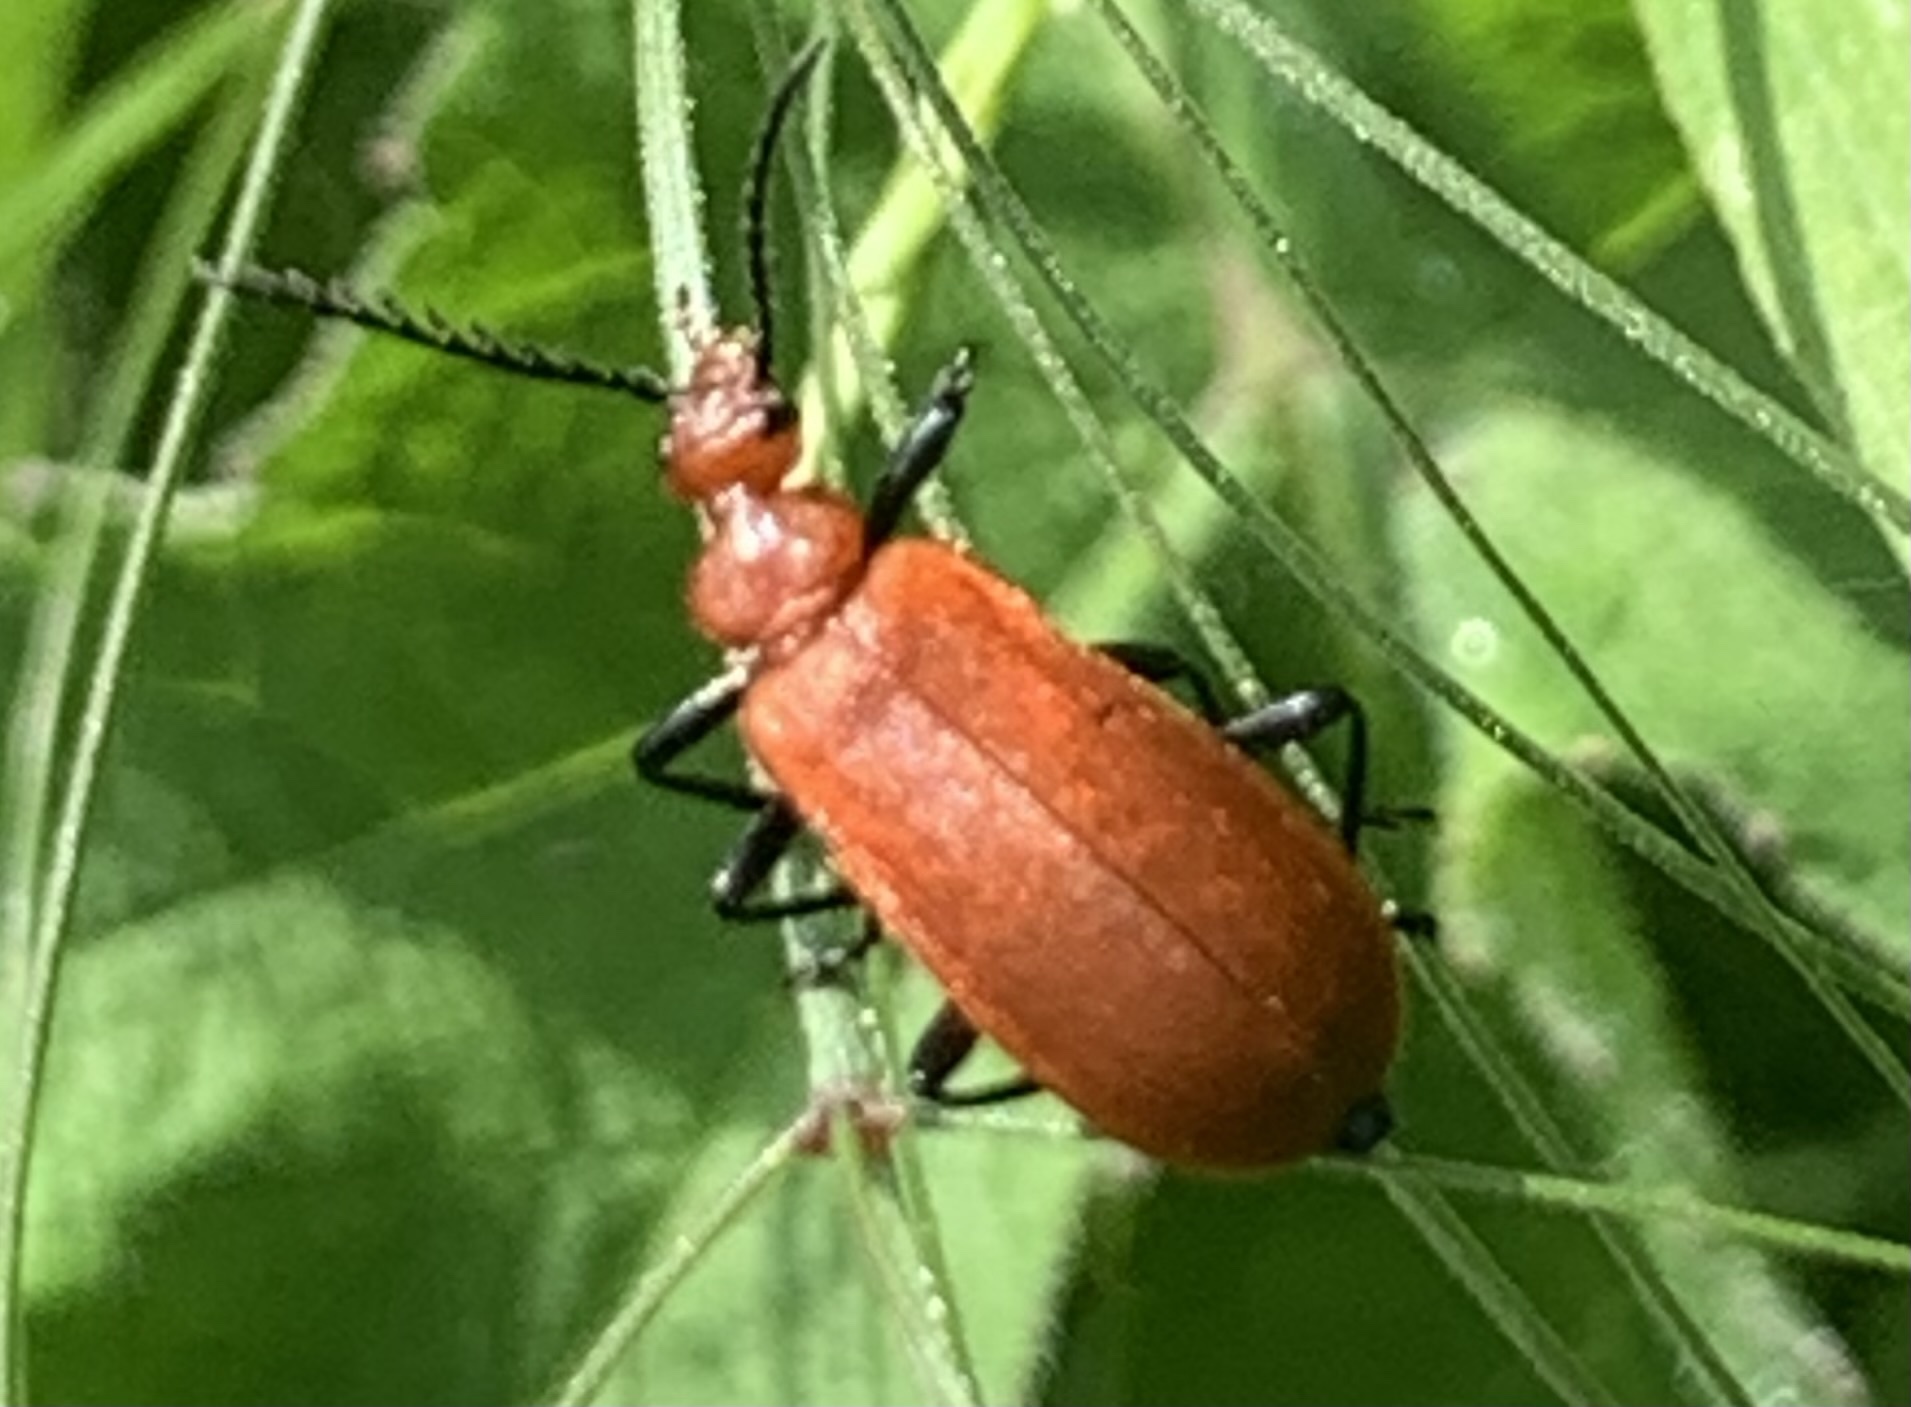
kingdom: Animalia
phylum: Arthropoda
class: Insecta
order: Coleoptera
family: Pyrochroidae
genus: Pyrochroa
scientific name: Pyrochroa serraticornis
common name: Red-headed cardinal beetle
